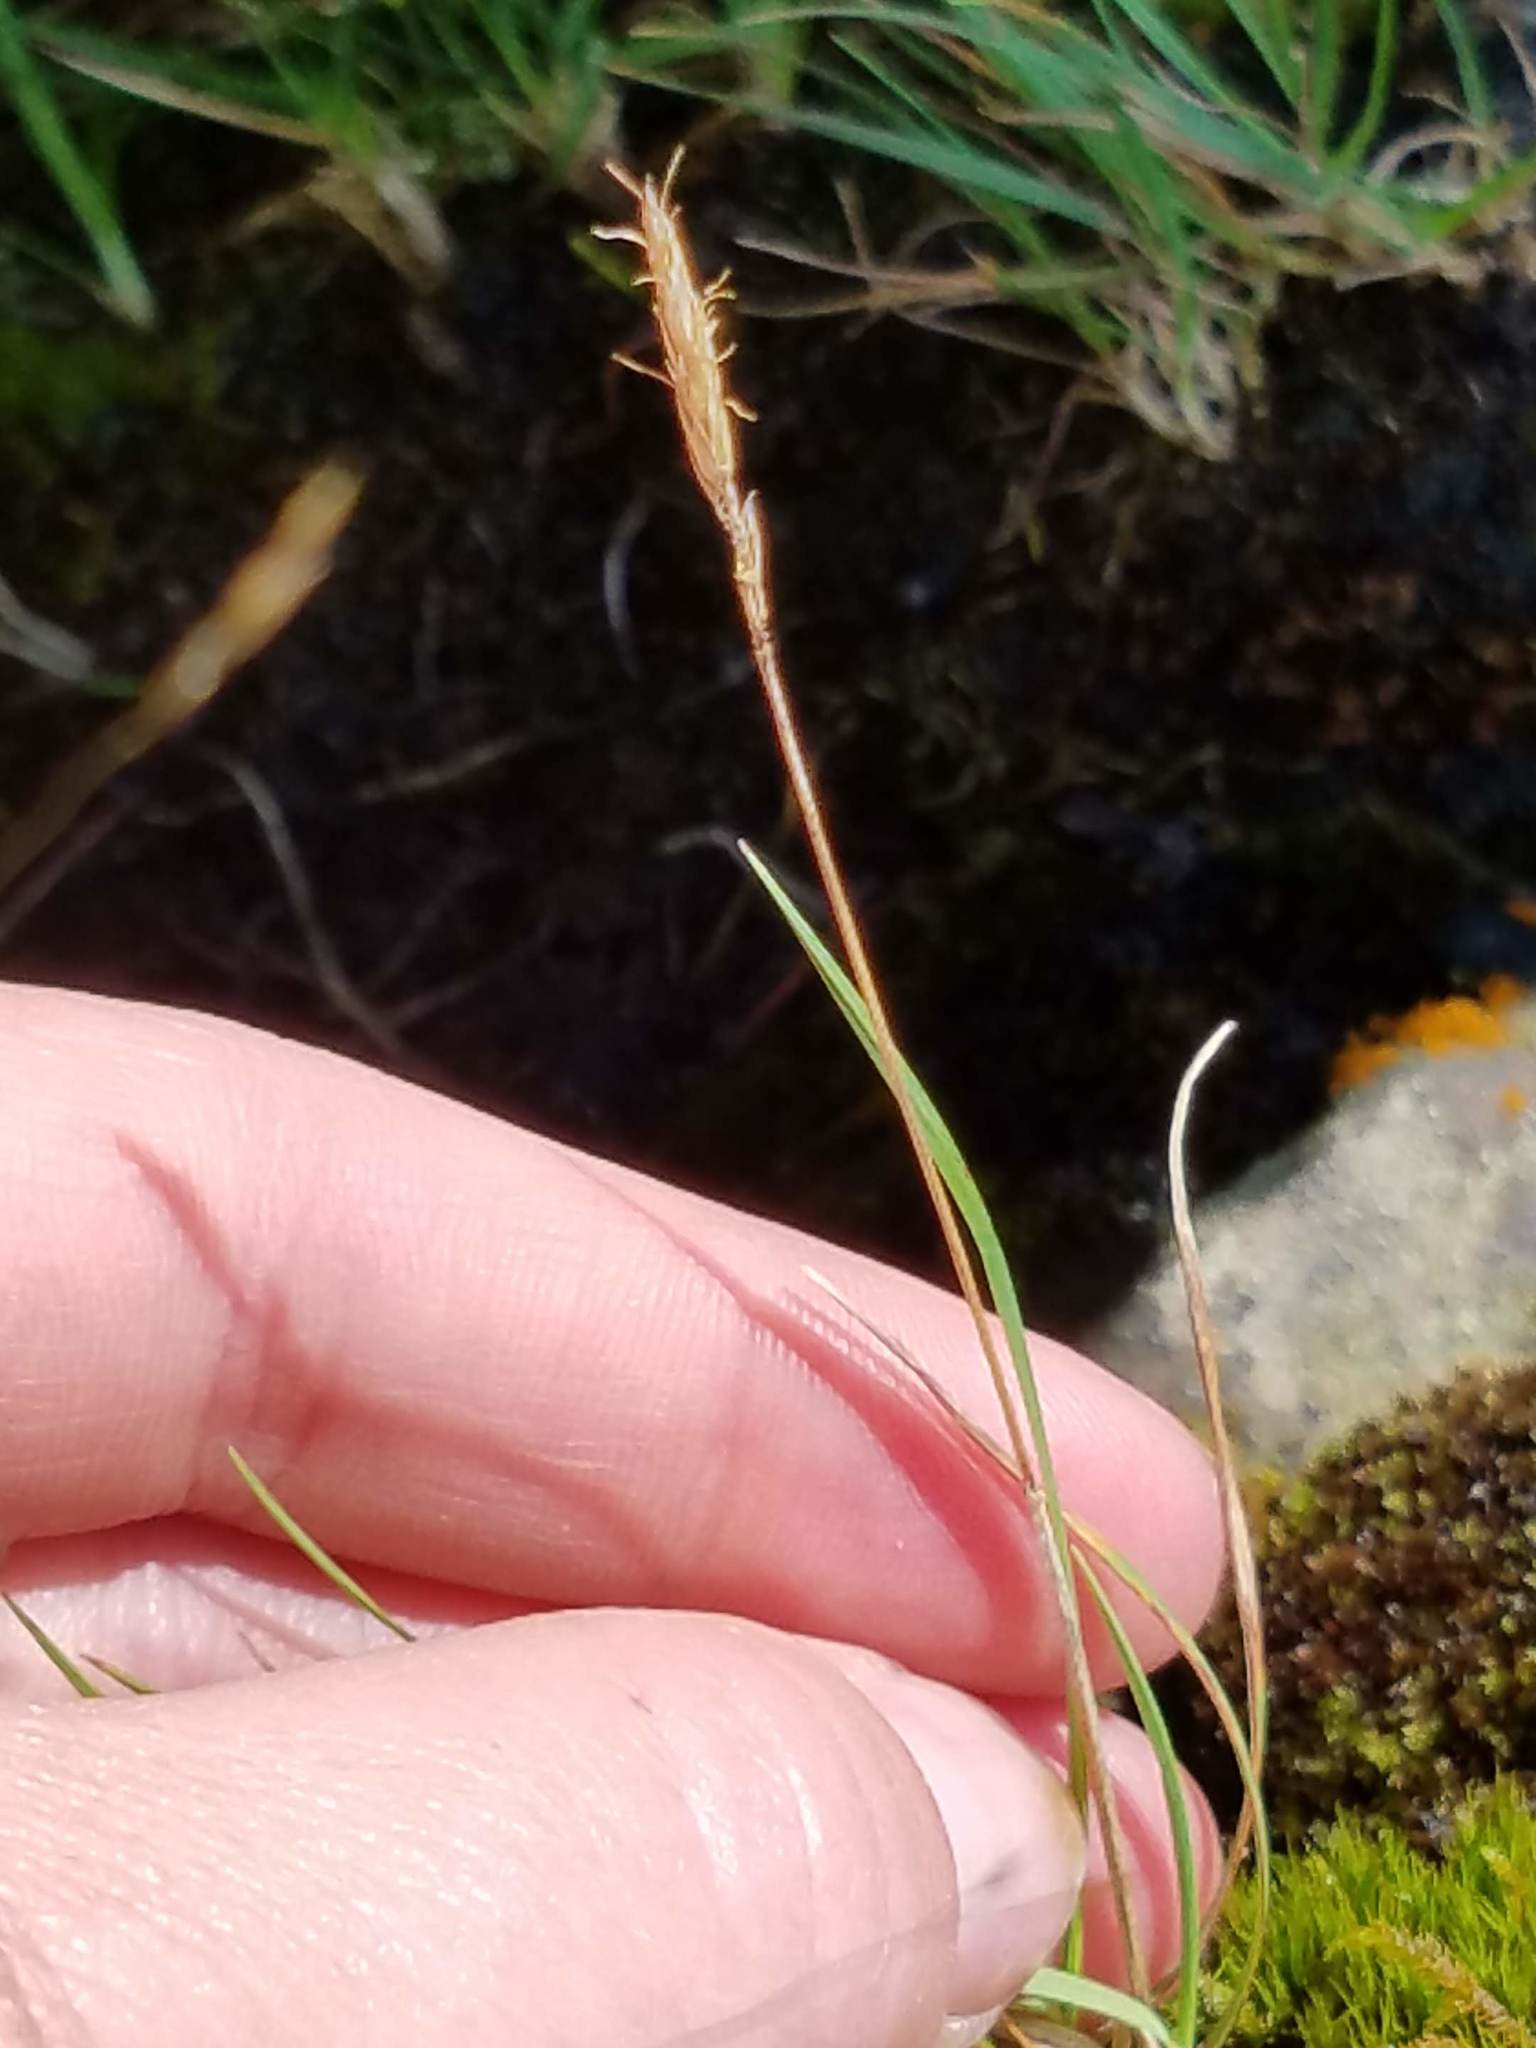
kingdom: Plantae
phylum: Tracheophyta
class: Liliopsida
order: Poales
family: Poaceae
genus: Koeleria
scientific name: Koeleria spicata
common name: Mountain trisetum
